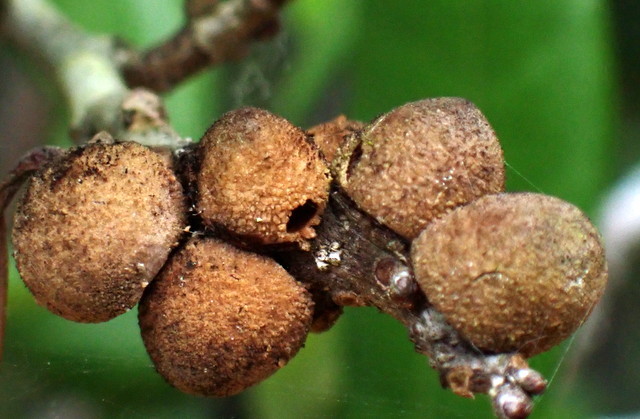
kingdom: Animalia
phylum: Arthropoda
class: Insecta
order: Hymenoptera
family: Cynipidae
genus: Disholcaspis
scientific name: Disholcaspis
